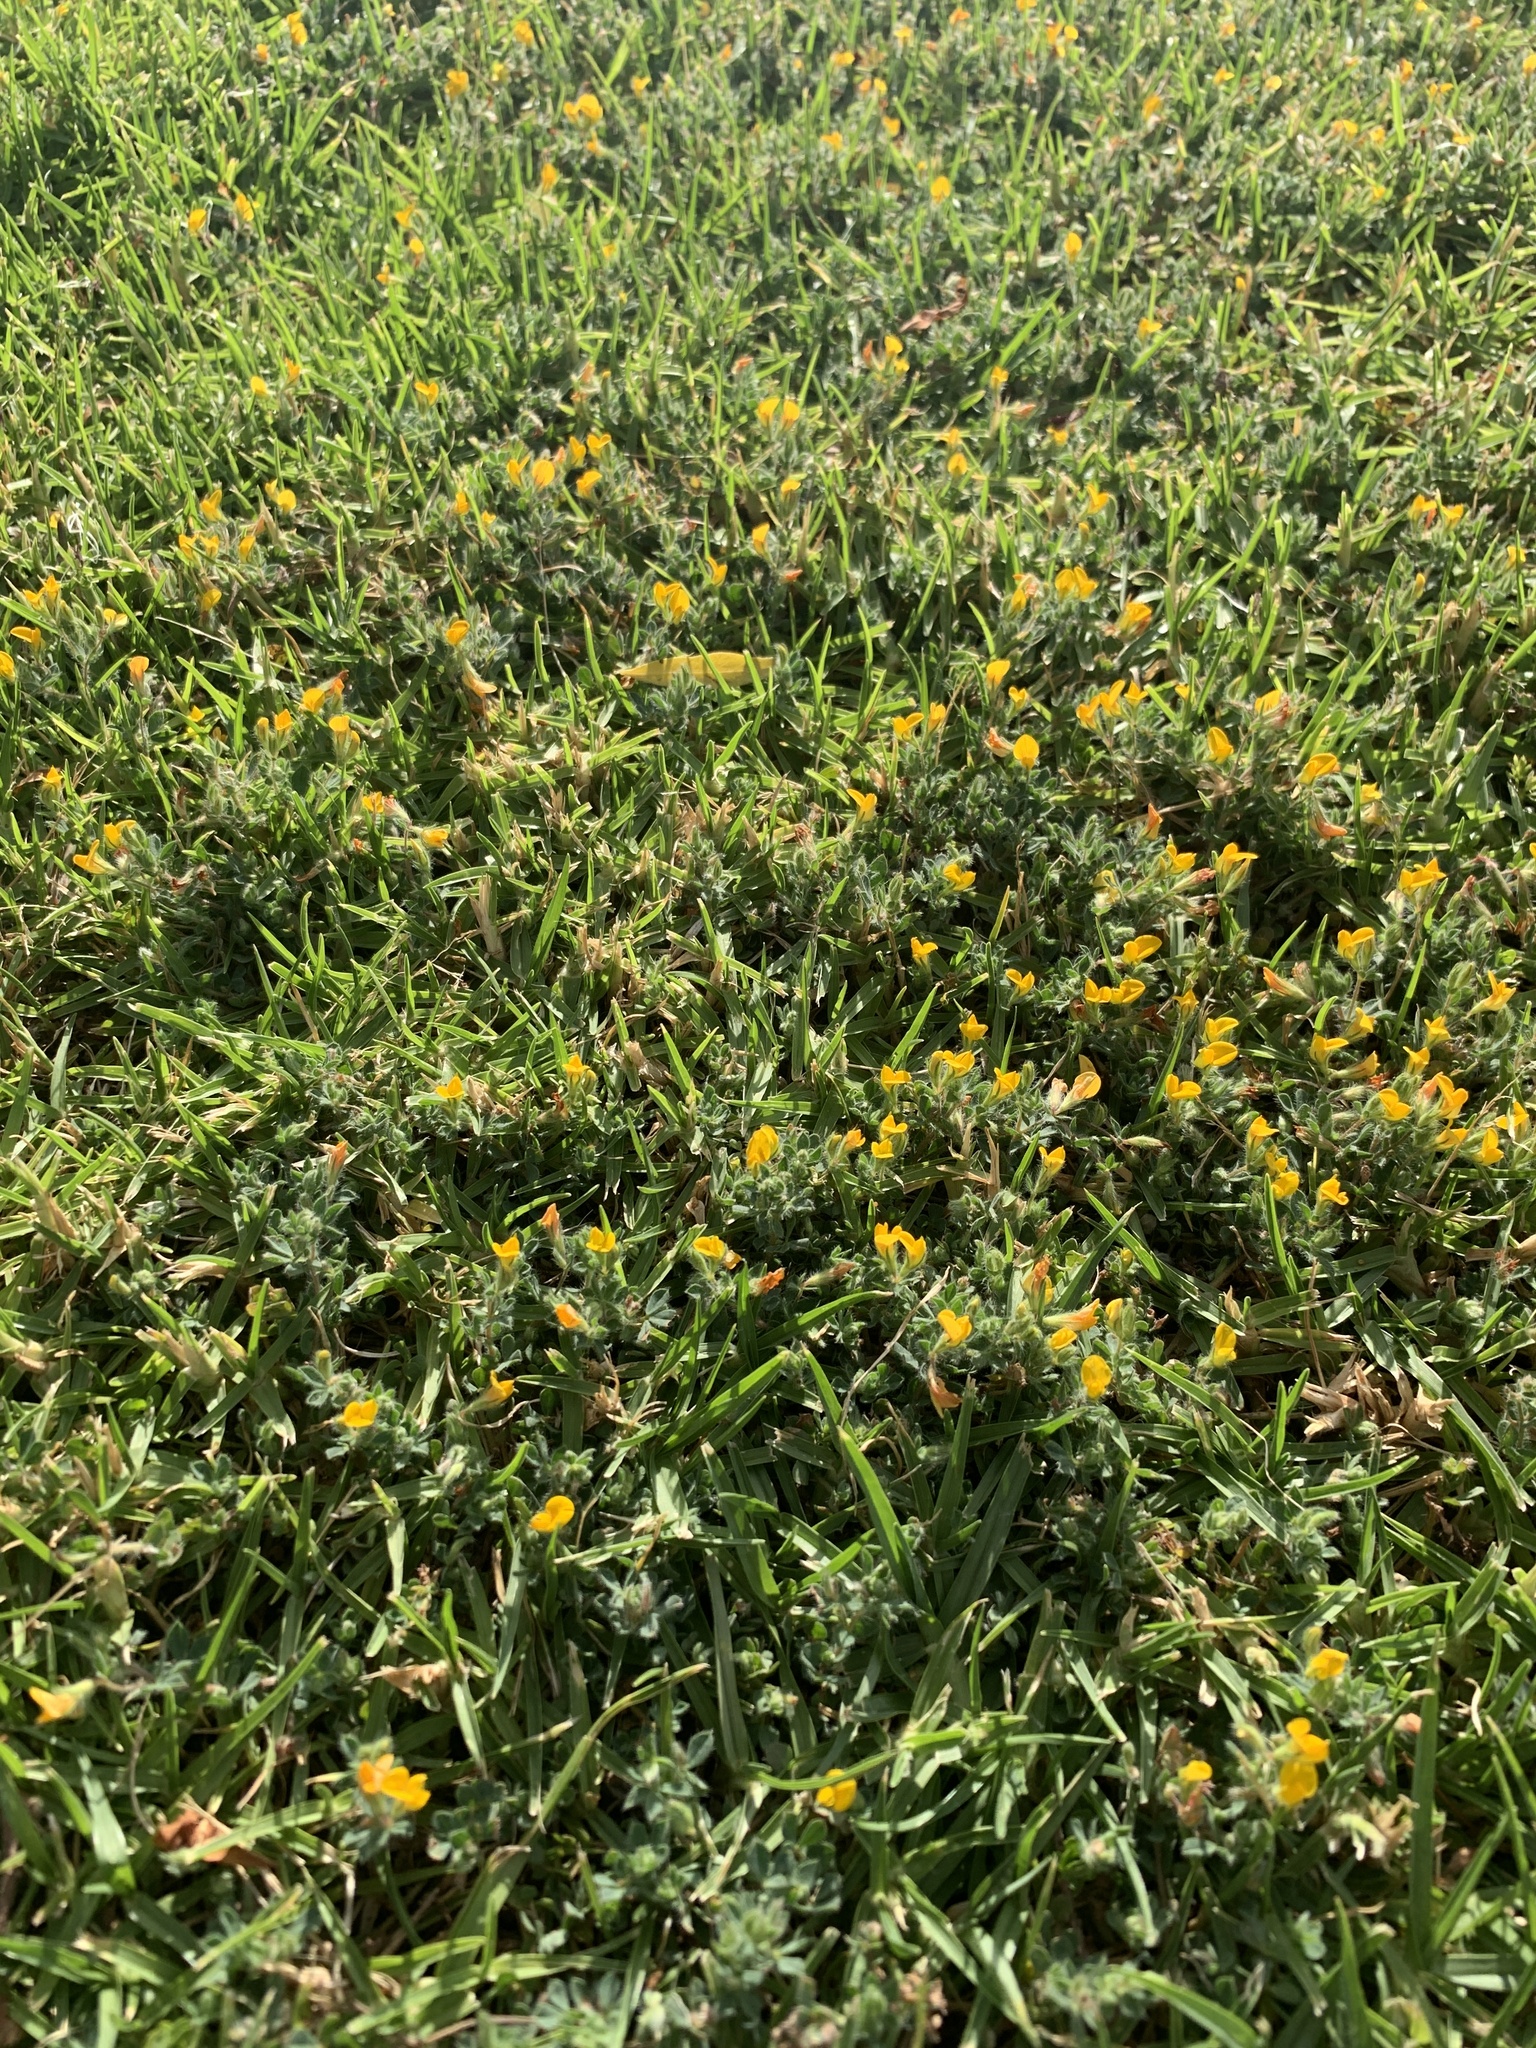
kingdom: Plantae
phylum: Tracheophyta
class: Magnoliopsida
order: Fabales
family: Fabaceae
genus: Lotus
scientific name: Lotus subbiflorus
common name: Hairy bird's-foot trefoil
